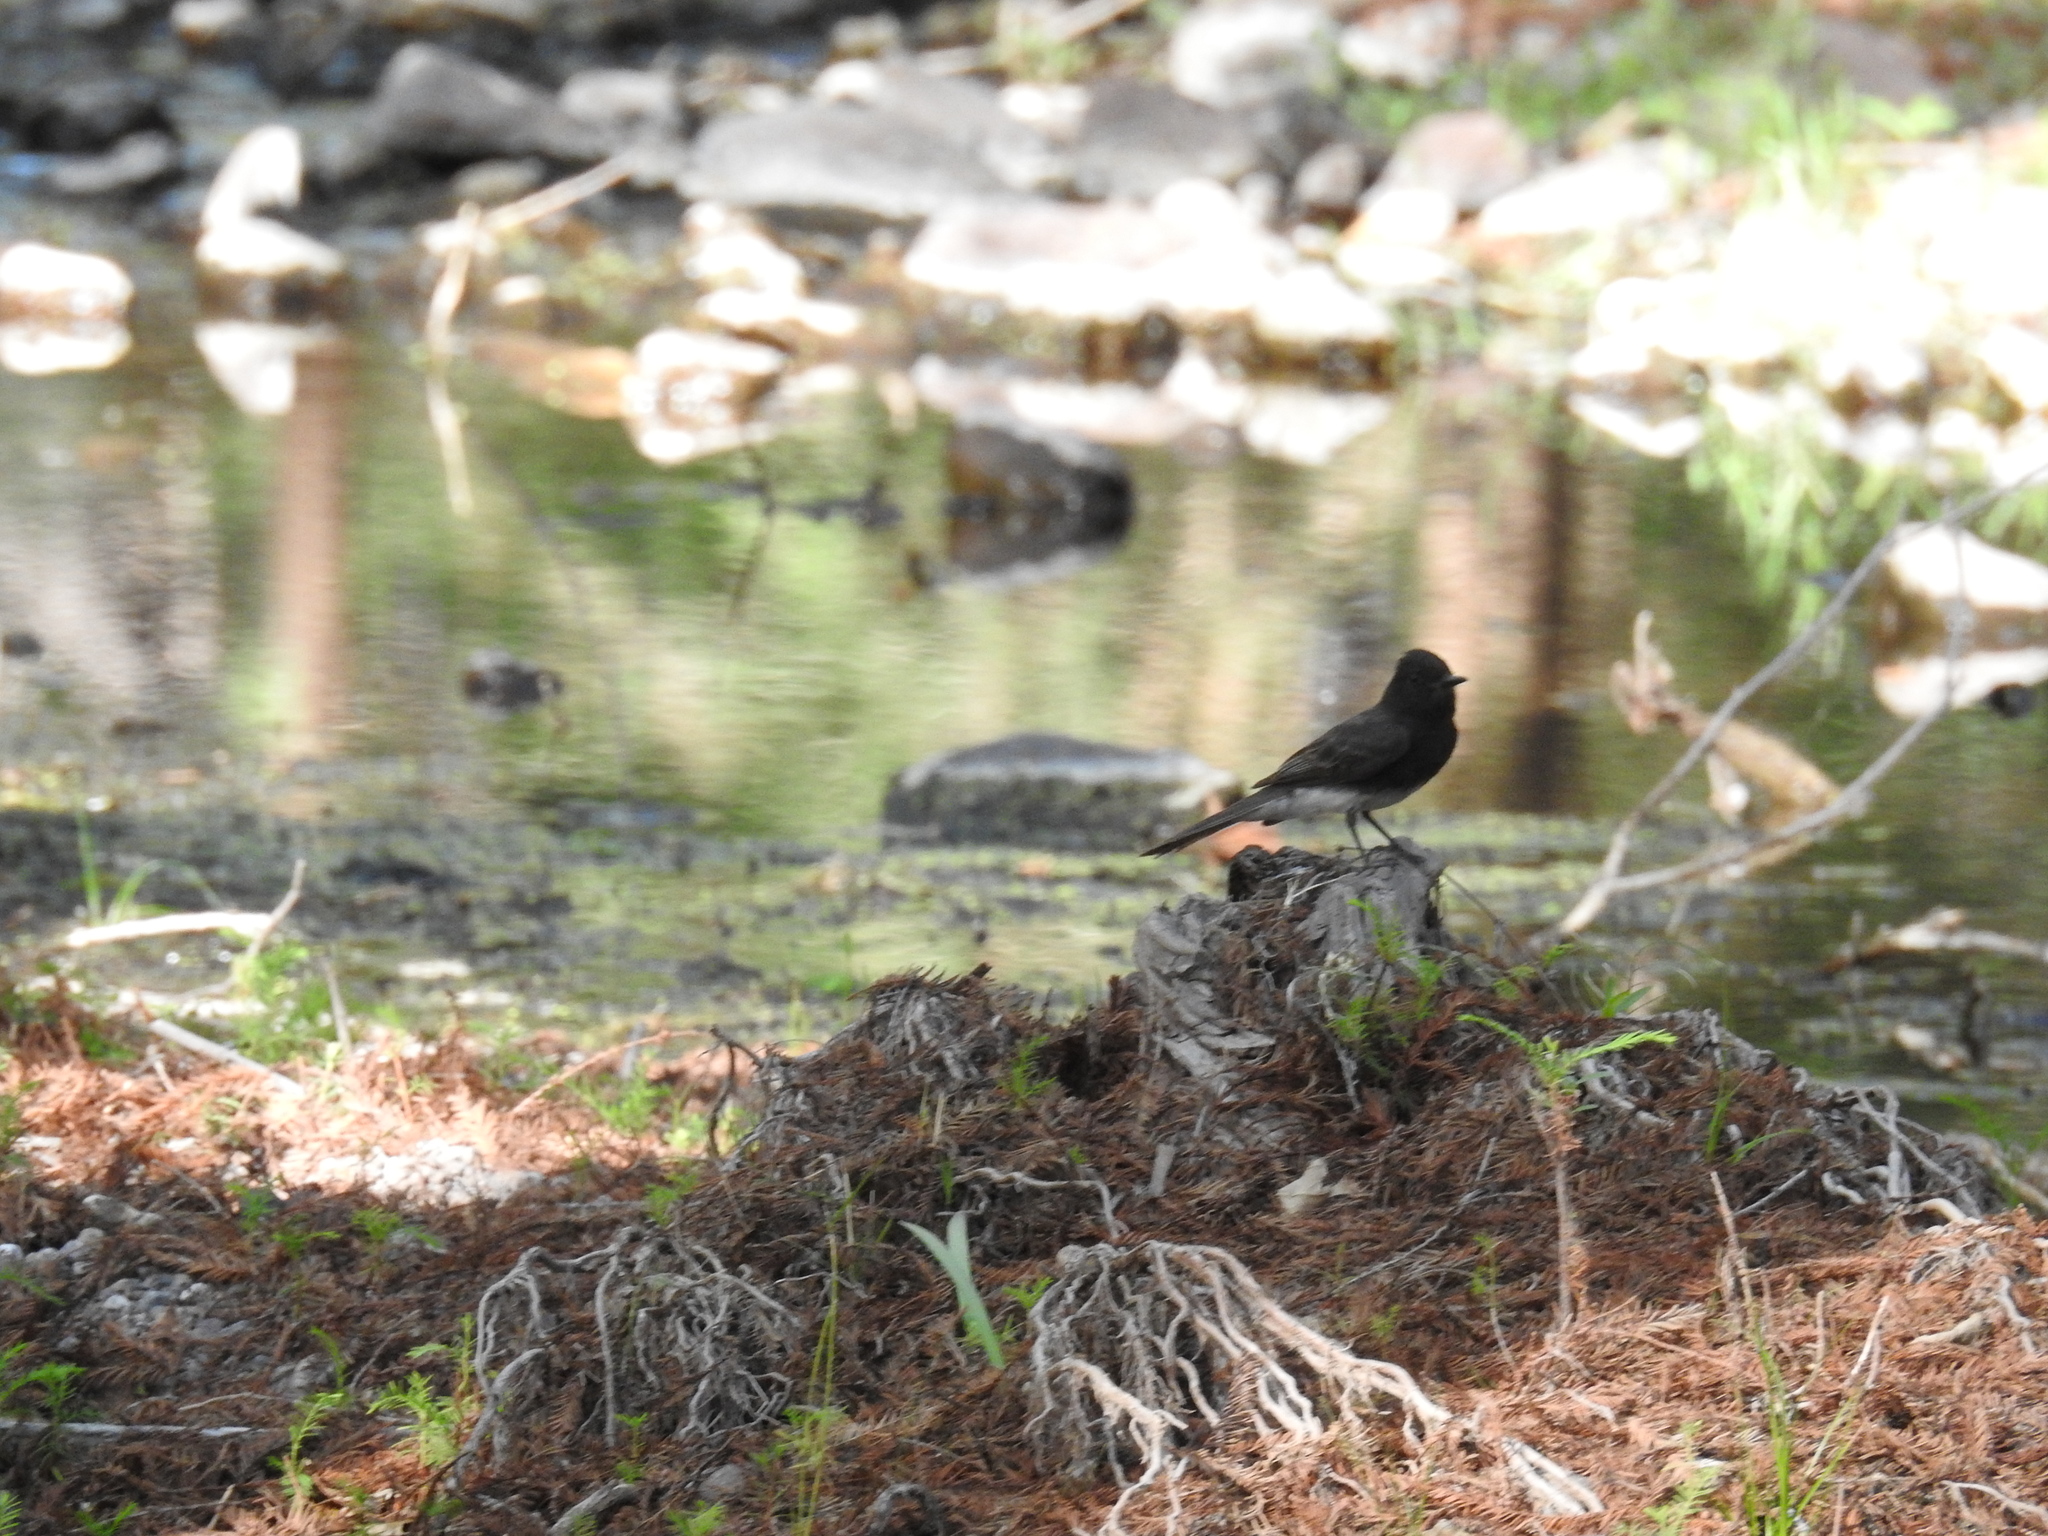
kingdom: Animalia
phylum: Chordata
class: Aves
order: Passeriformes
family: Tyrannidae
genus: Sayornis
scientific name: Sayornis nigricans
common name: Black phoebe
